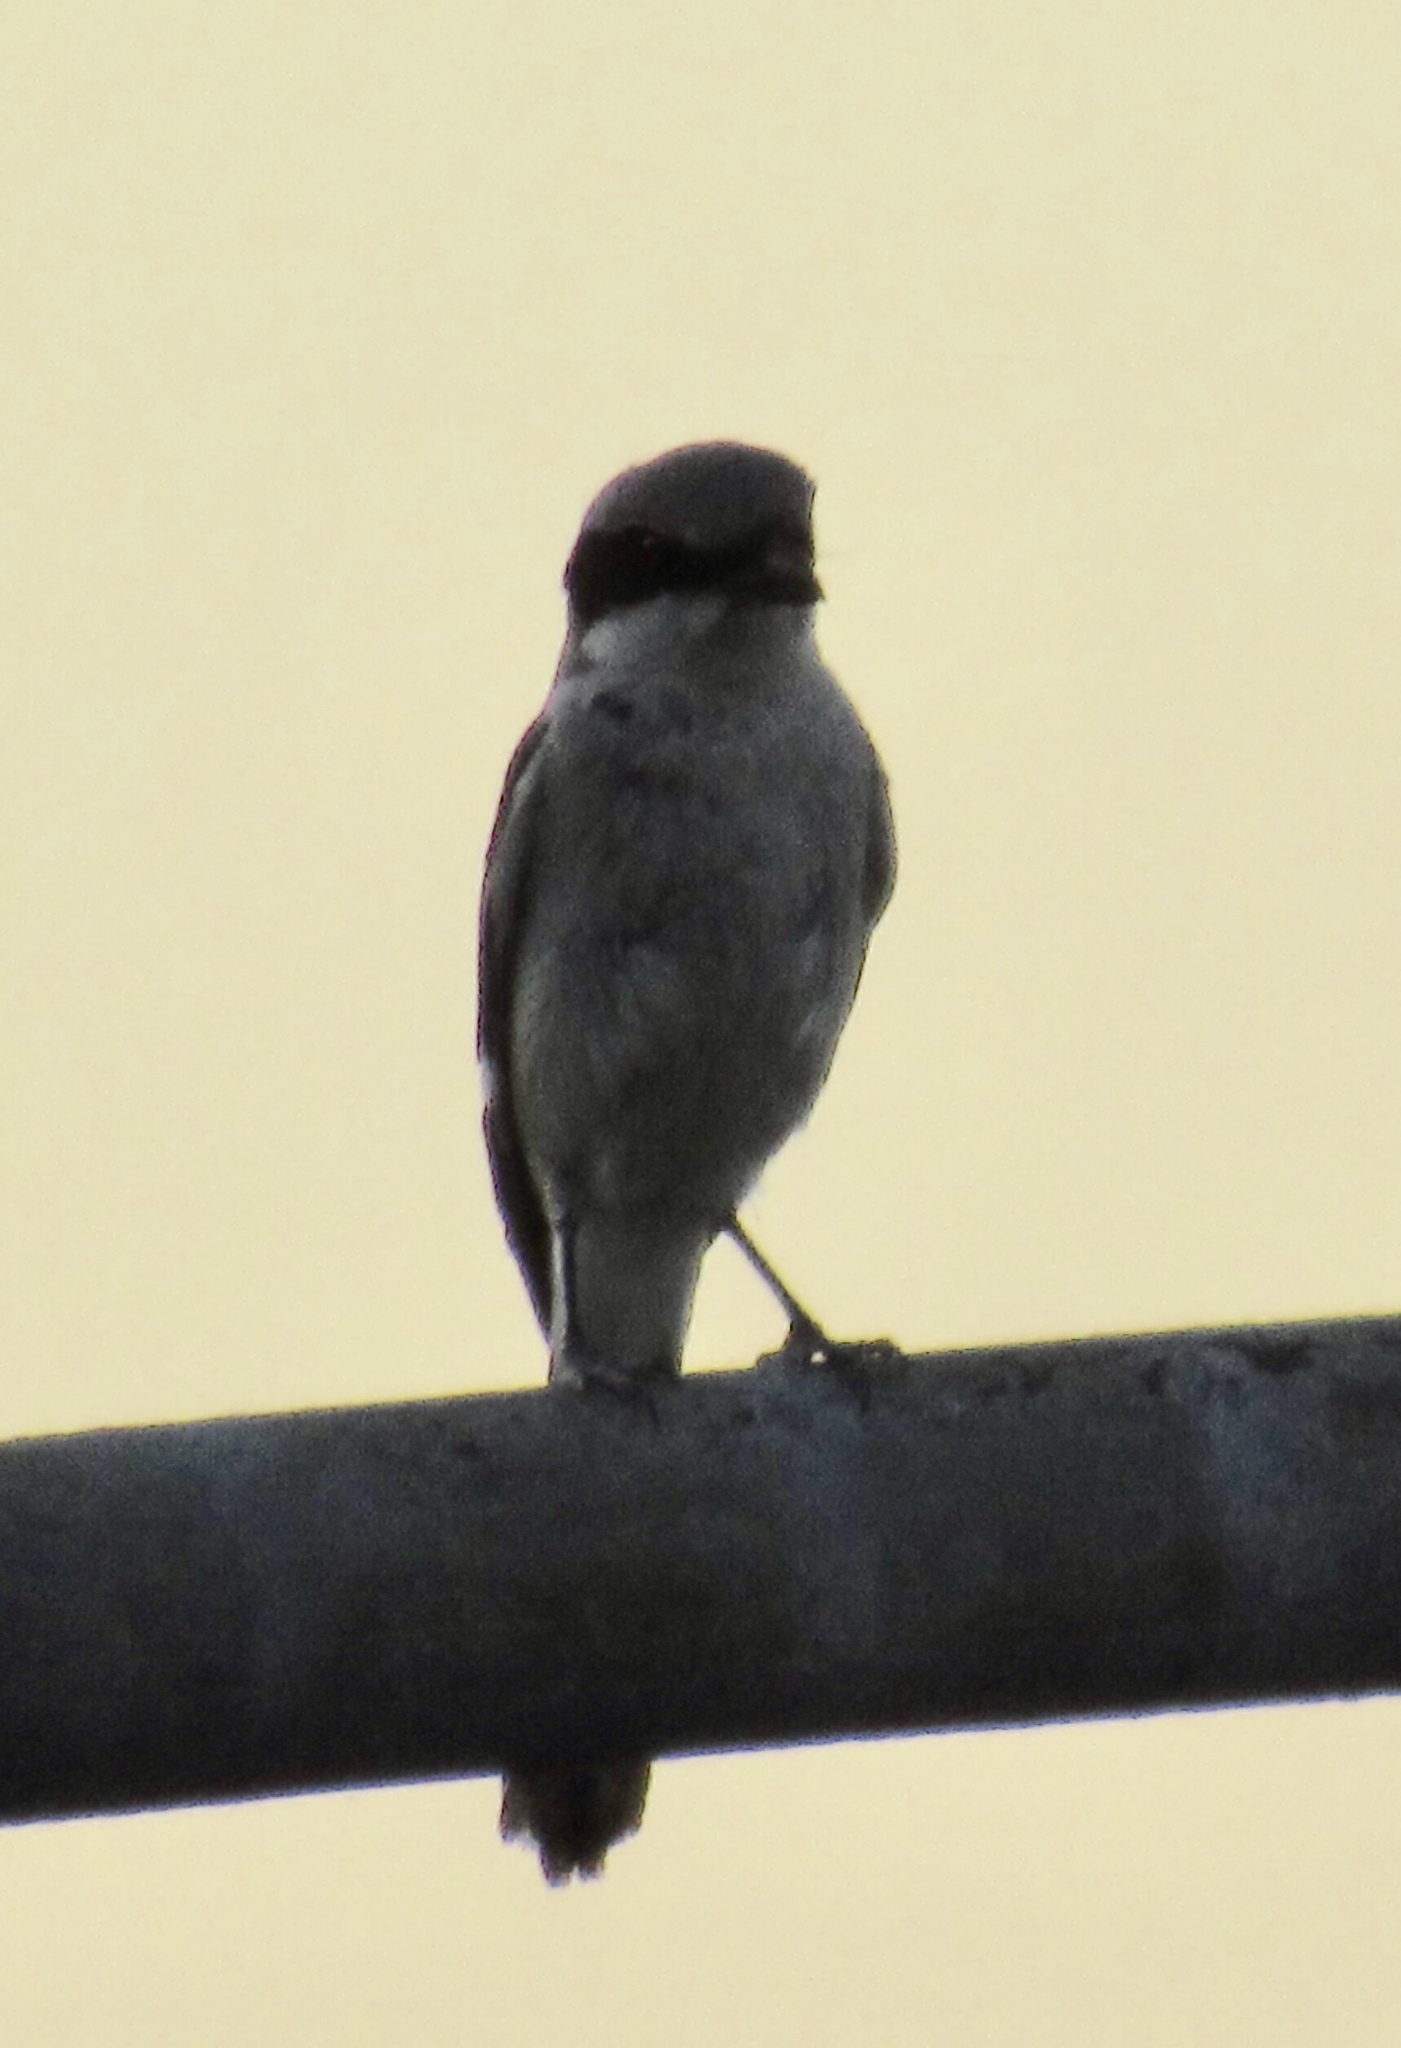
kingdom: Animalia
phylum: Chordata
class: Aves
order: Passeriformes
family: Laniidae
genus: Lanius
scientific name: Lanius ludovicianus
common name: Loggerhead shrike
